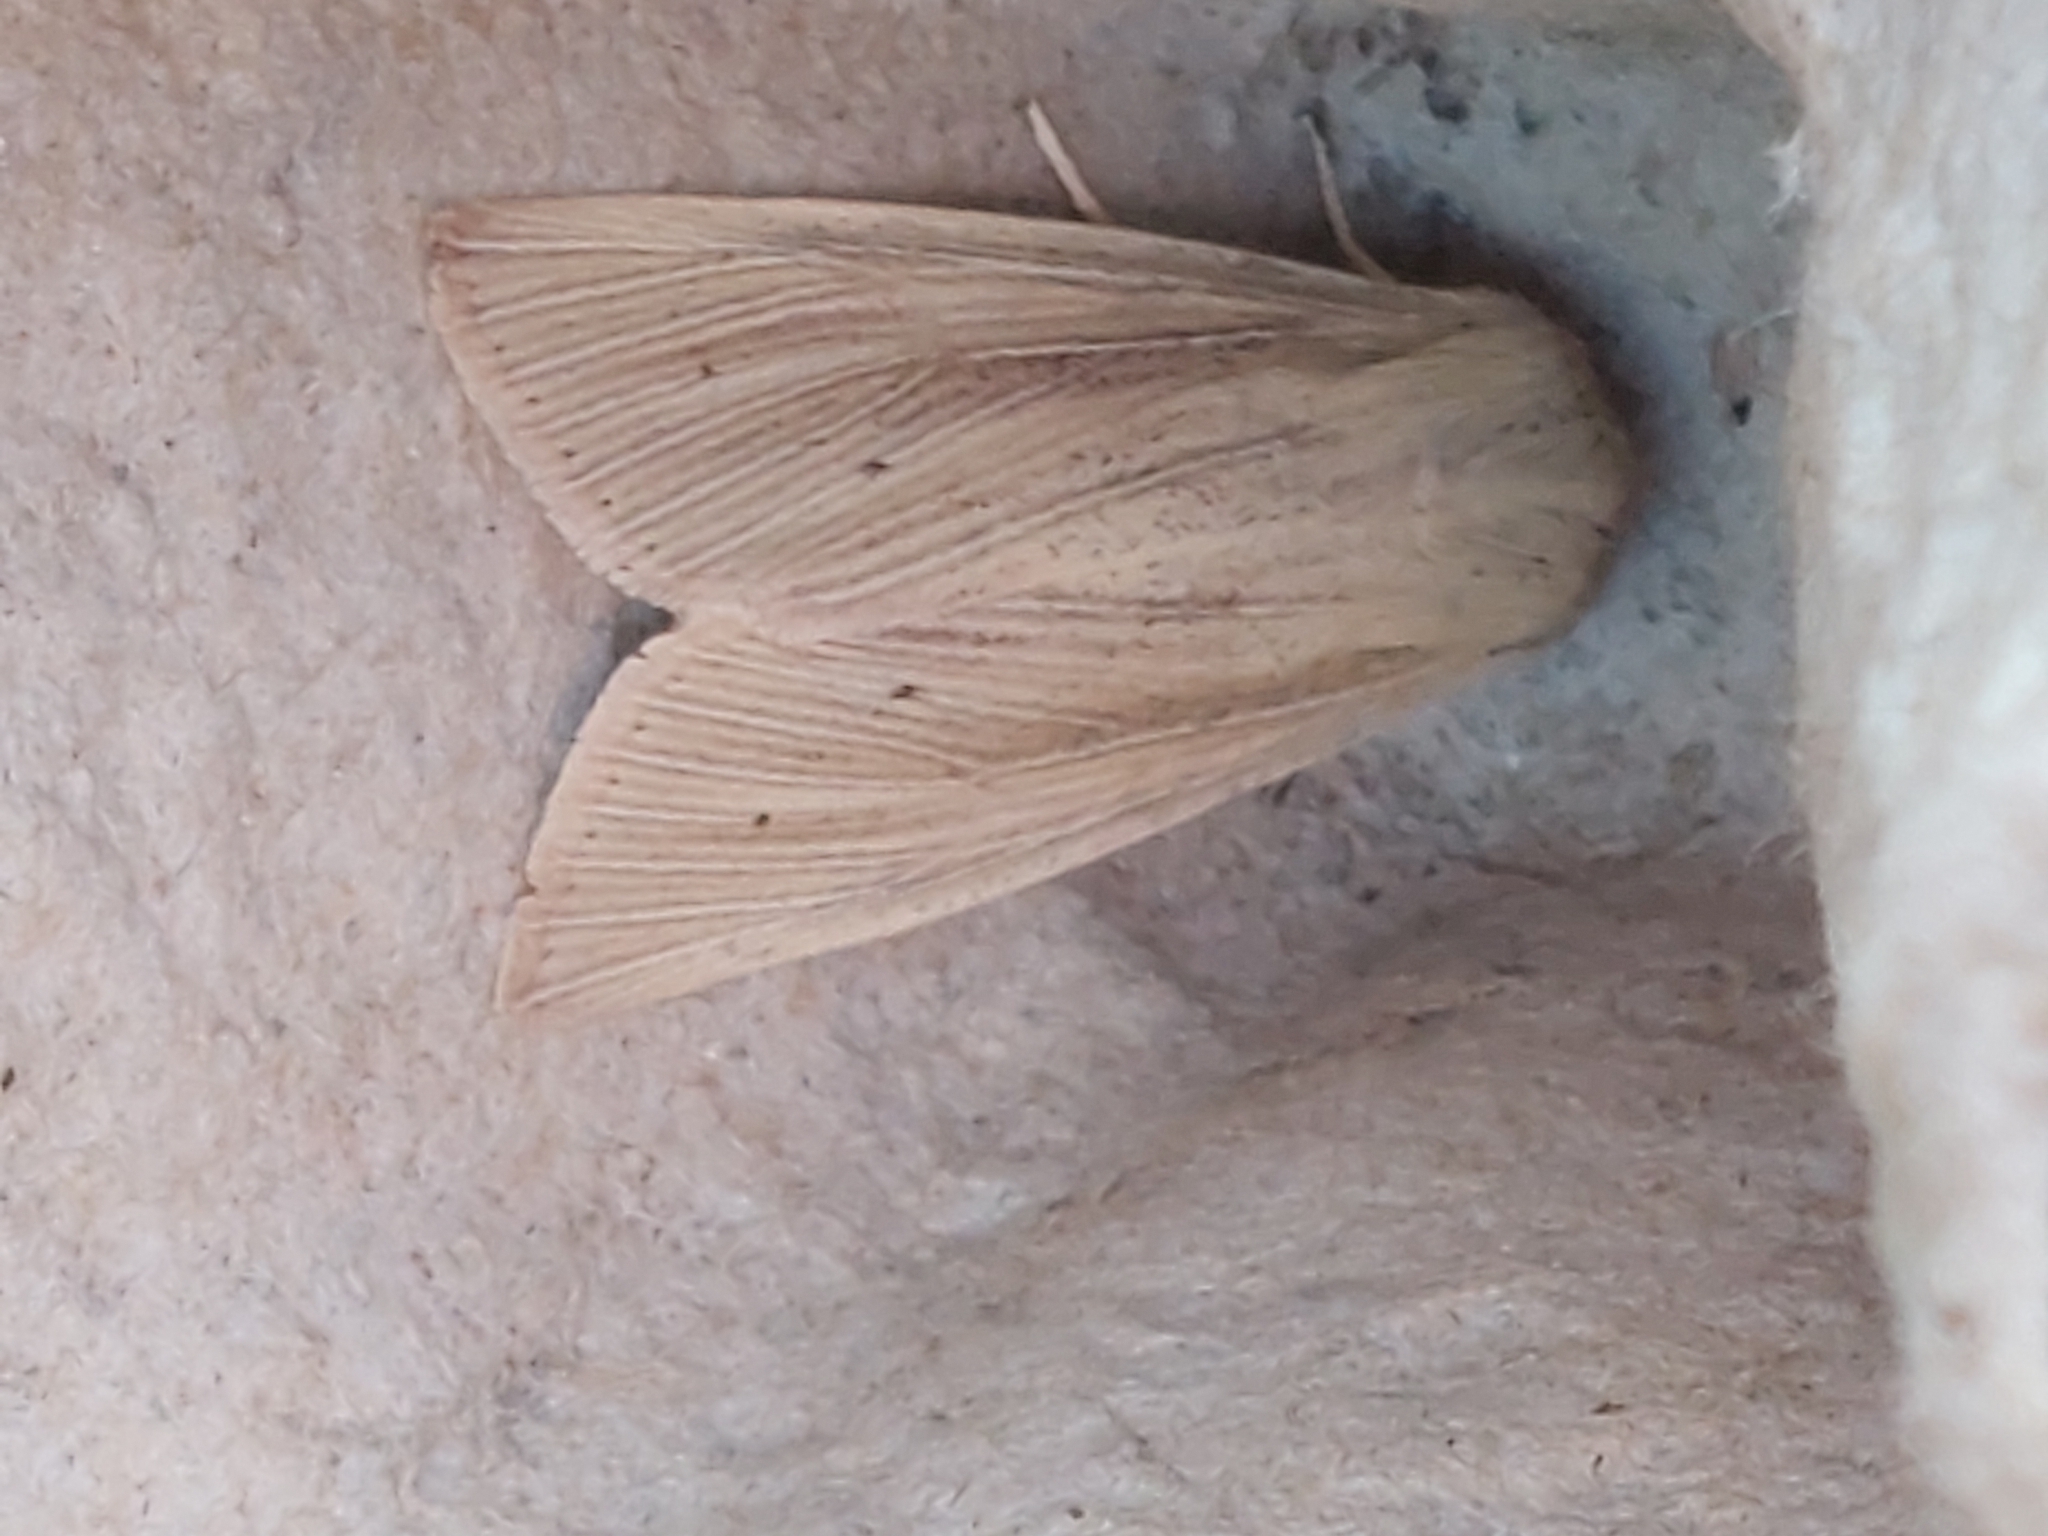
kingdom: Animalia
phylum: Arthropoda
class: Insecta
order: Lepidoptera
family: Noctuidae
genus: Mythimna
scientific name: Mythimna impura
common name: Smoky wainscot
